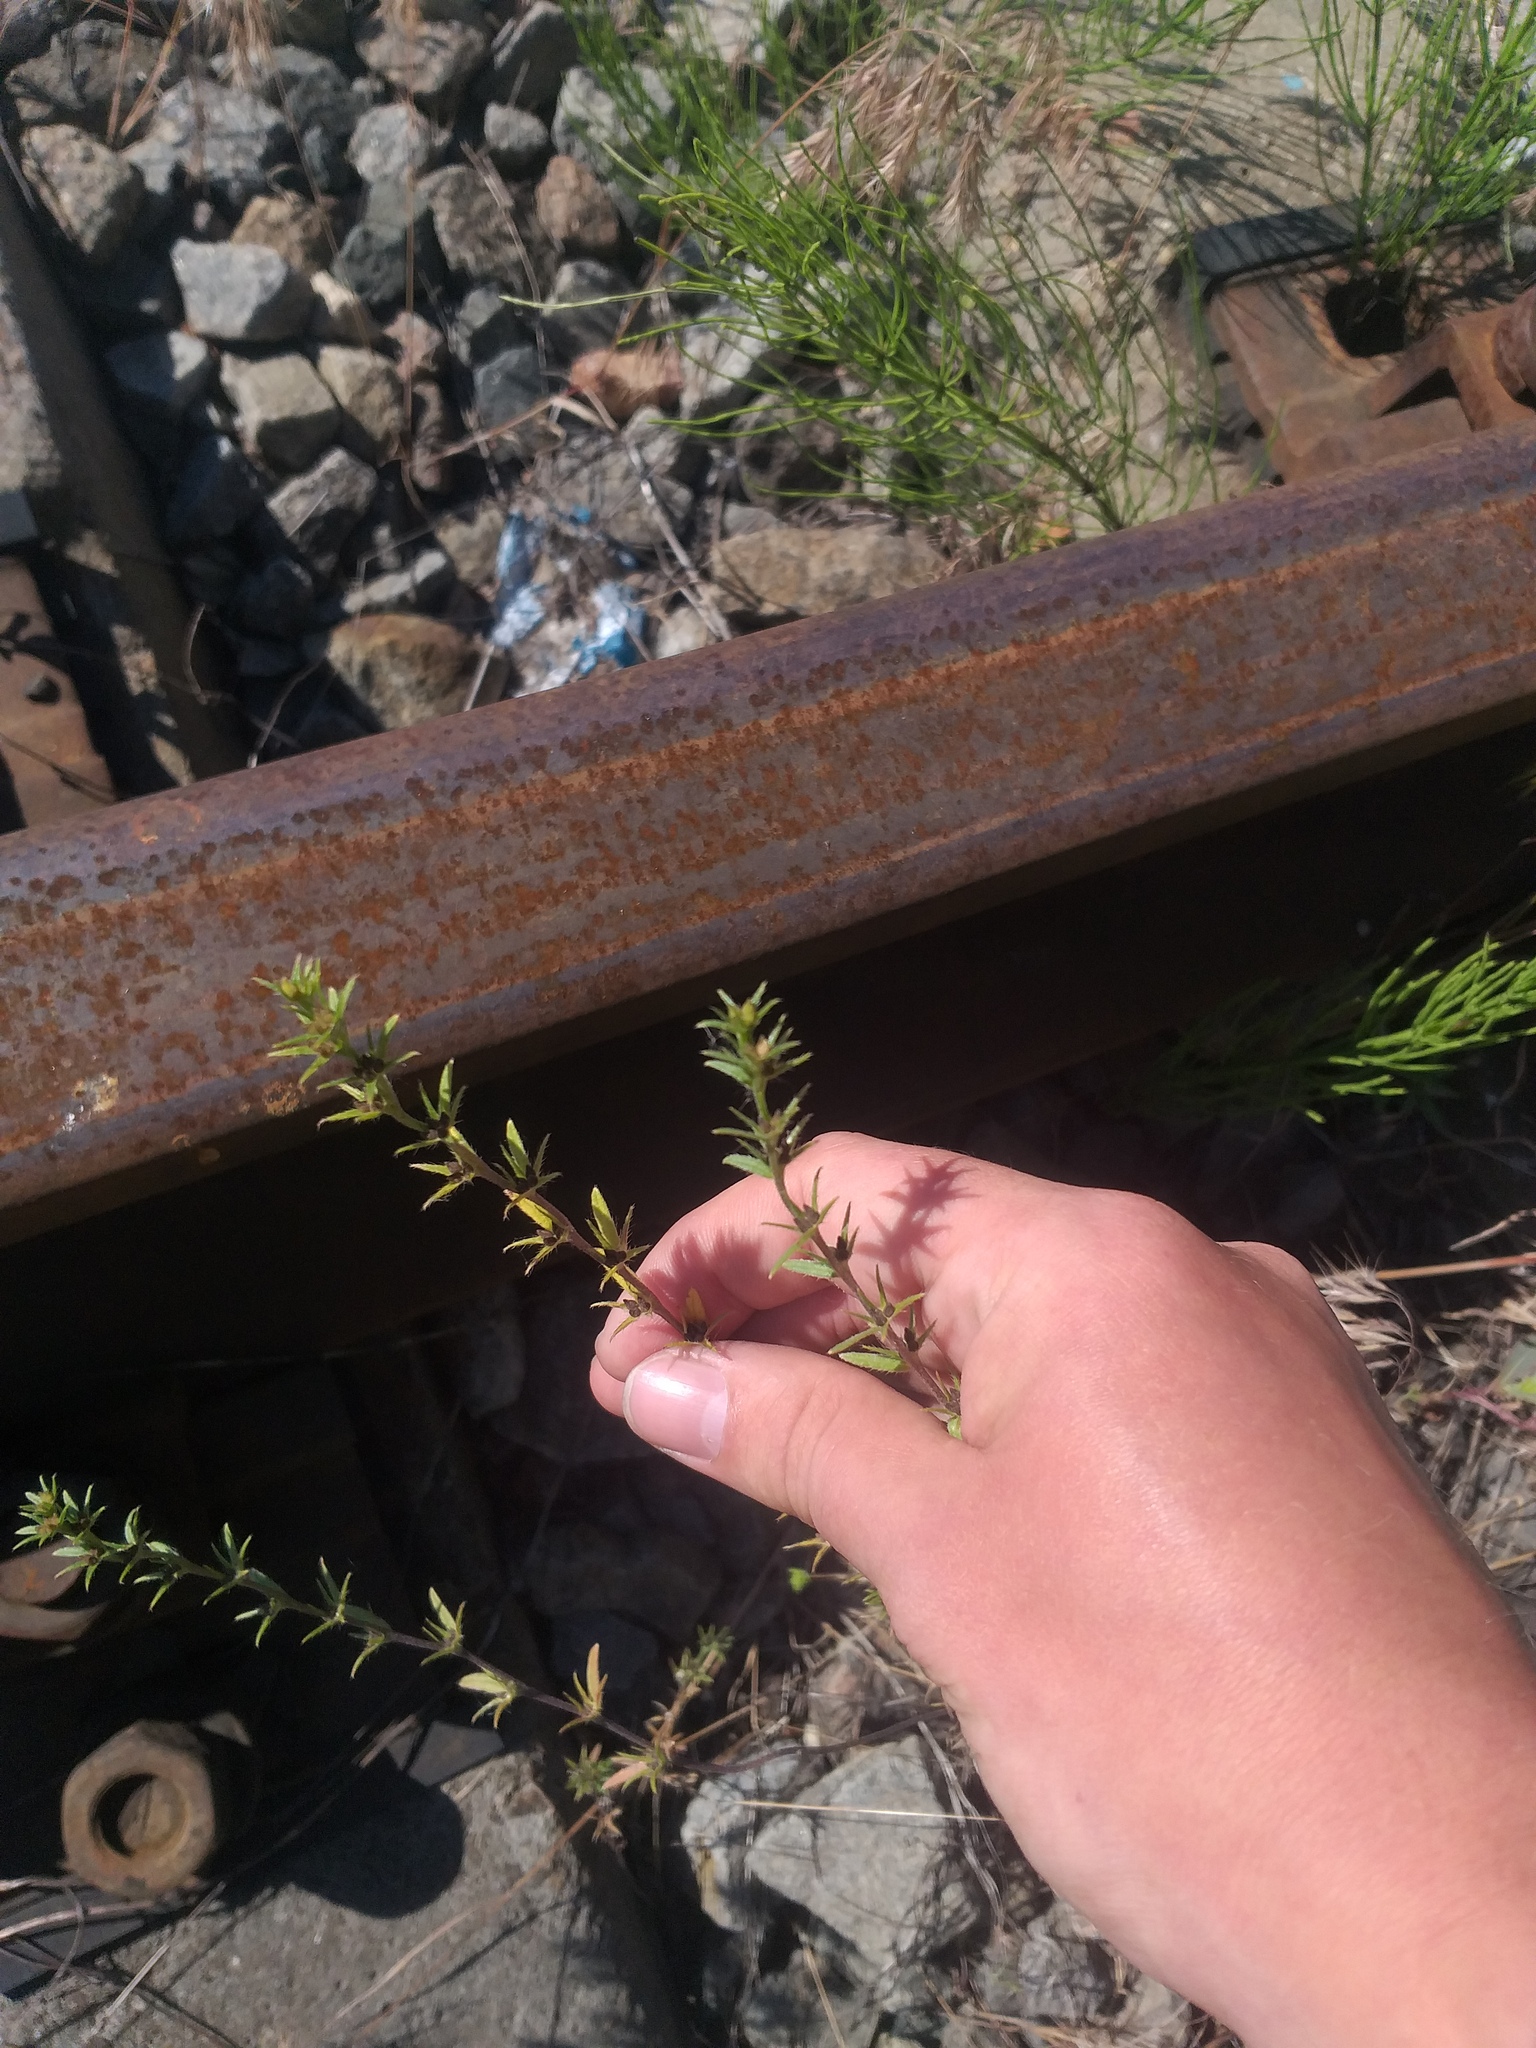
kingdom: Plantae
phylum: Tracheophyta
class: Magnoliopsida
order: Boraginales
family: Boraginaceae
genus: Buglossoides
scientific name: Buglossoides arvensis
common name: Corn gromwell
